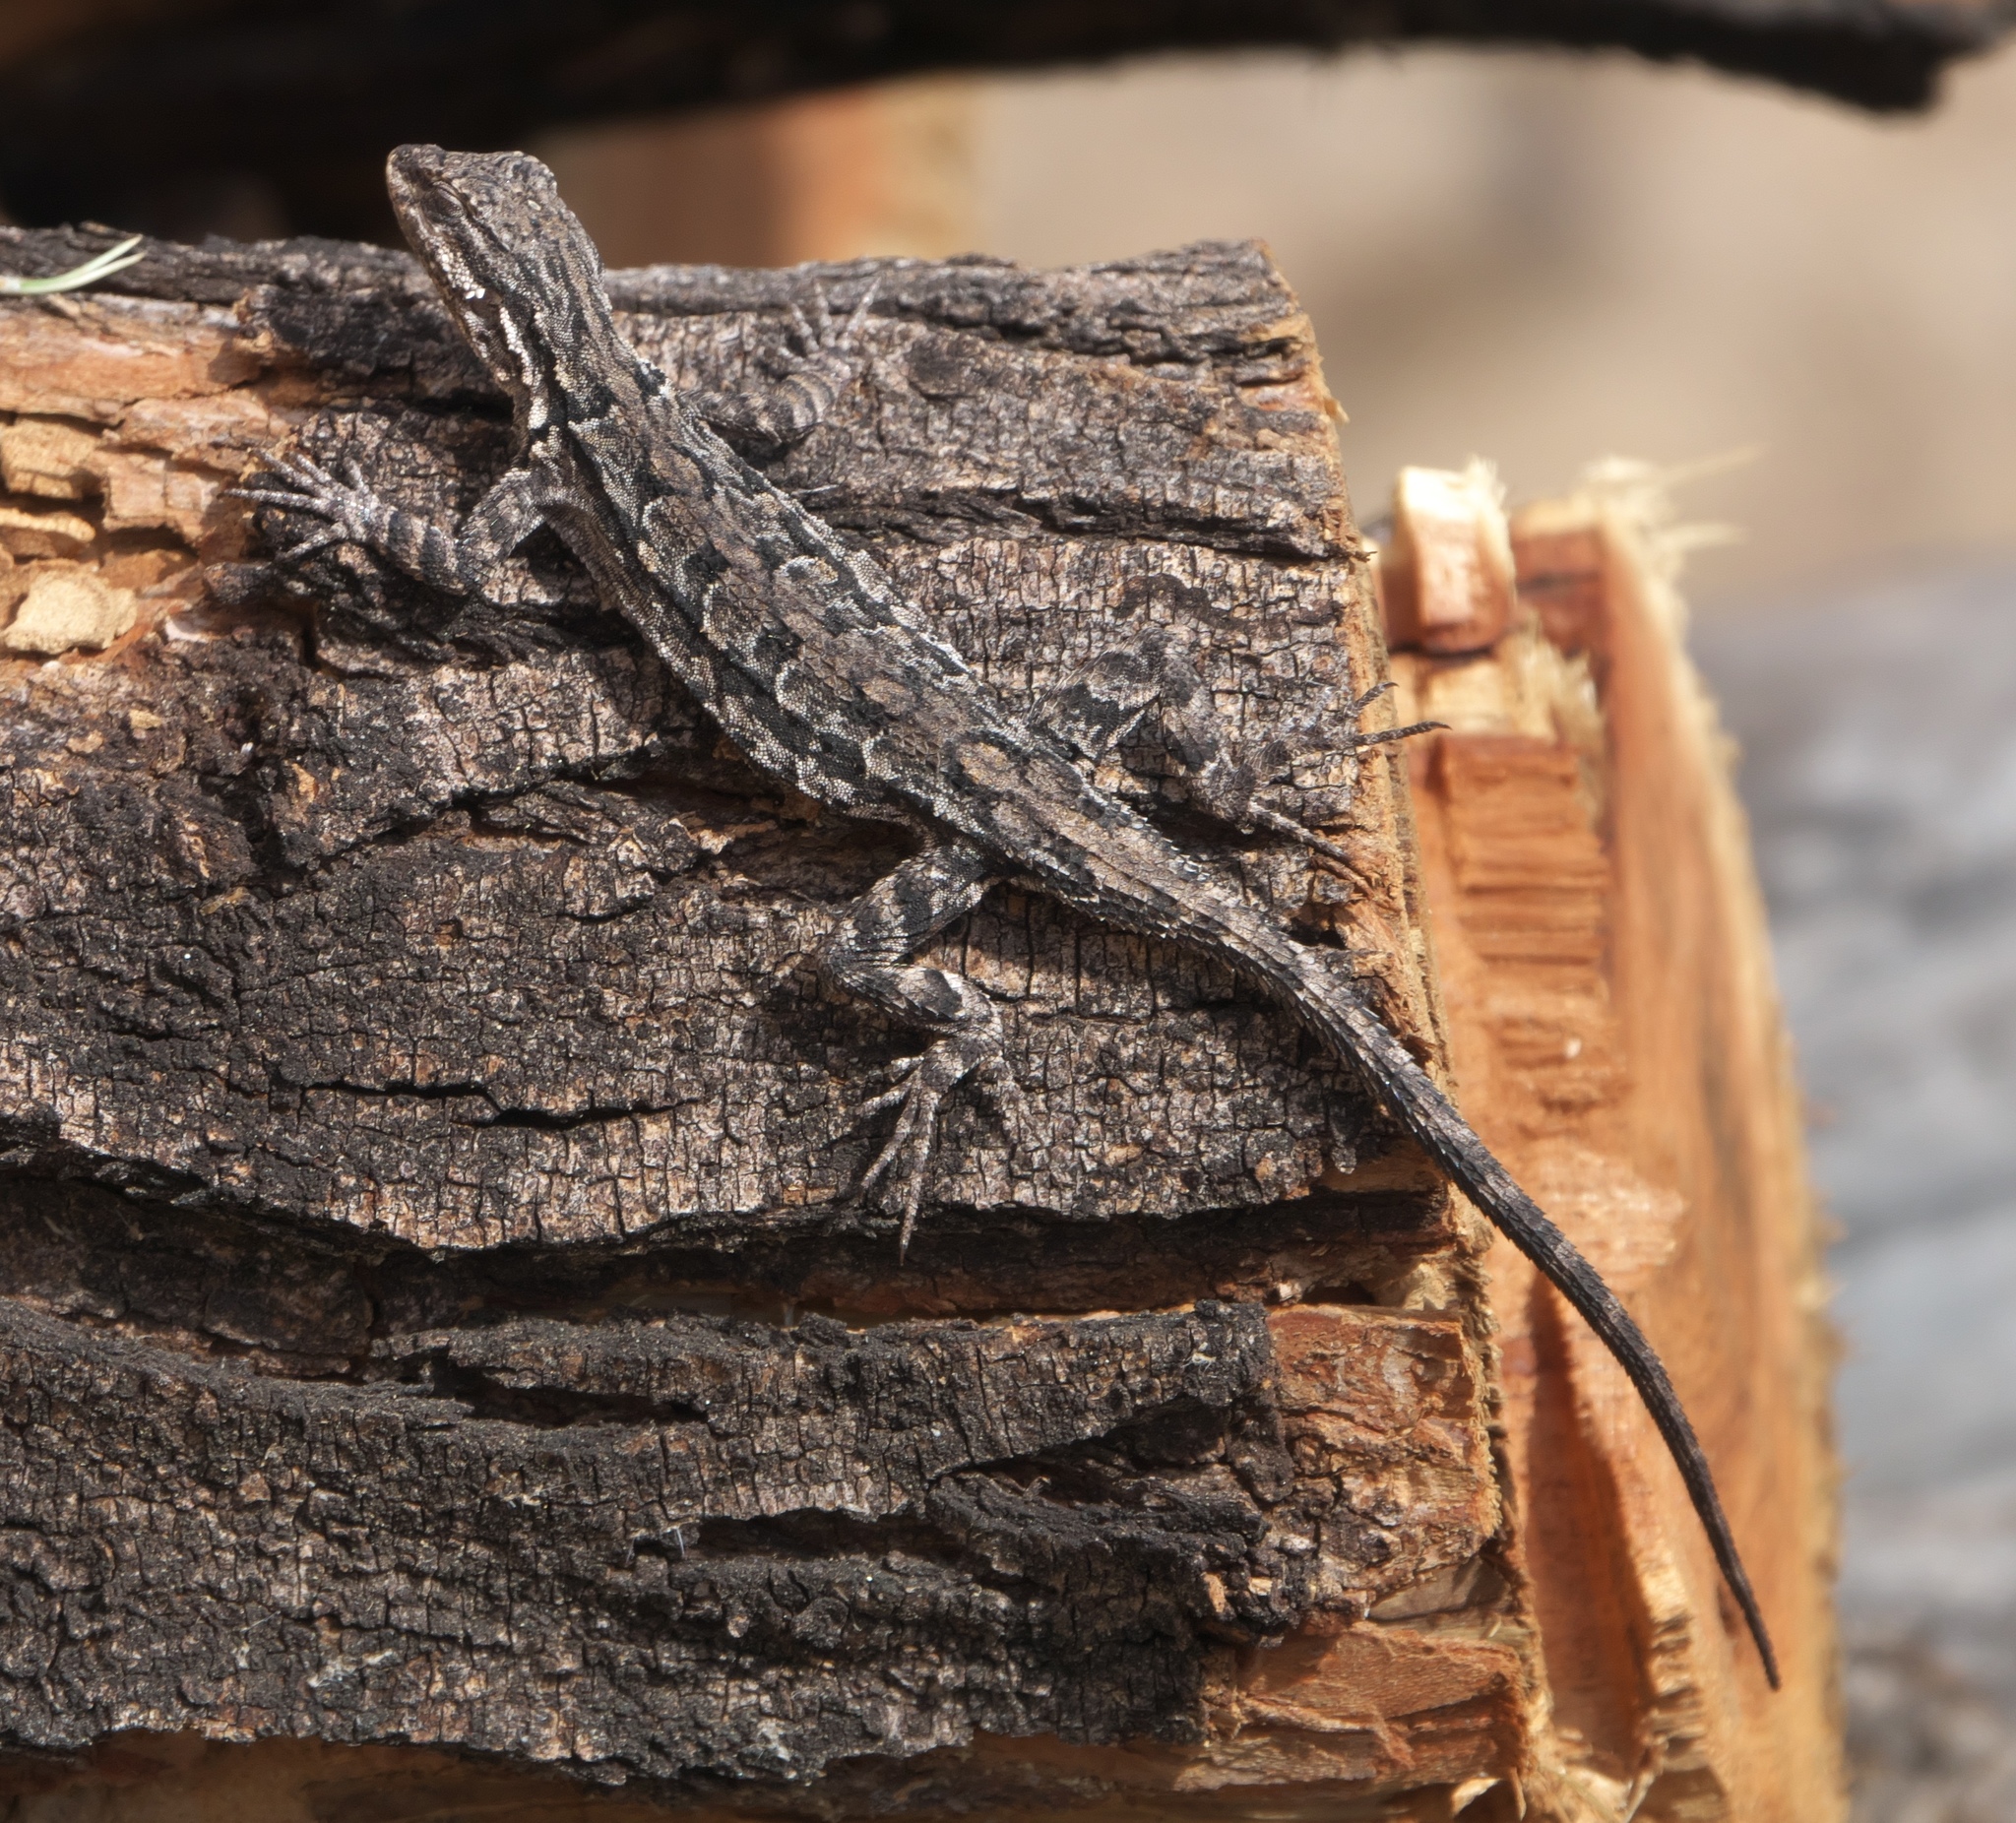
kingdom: Animalia
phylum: Chordata
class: Squamata
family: Phrynosomatidae
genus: Urosaurus
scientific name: Urosaurus ornatus
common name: Ornate tree lizard
